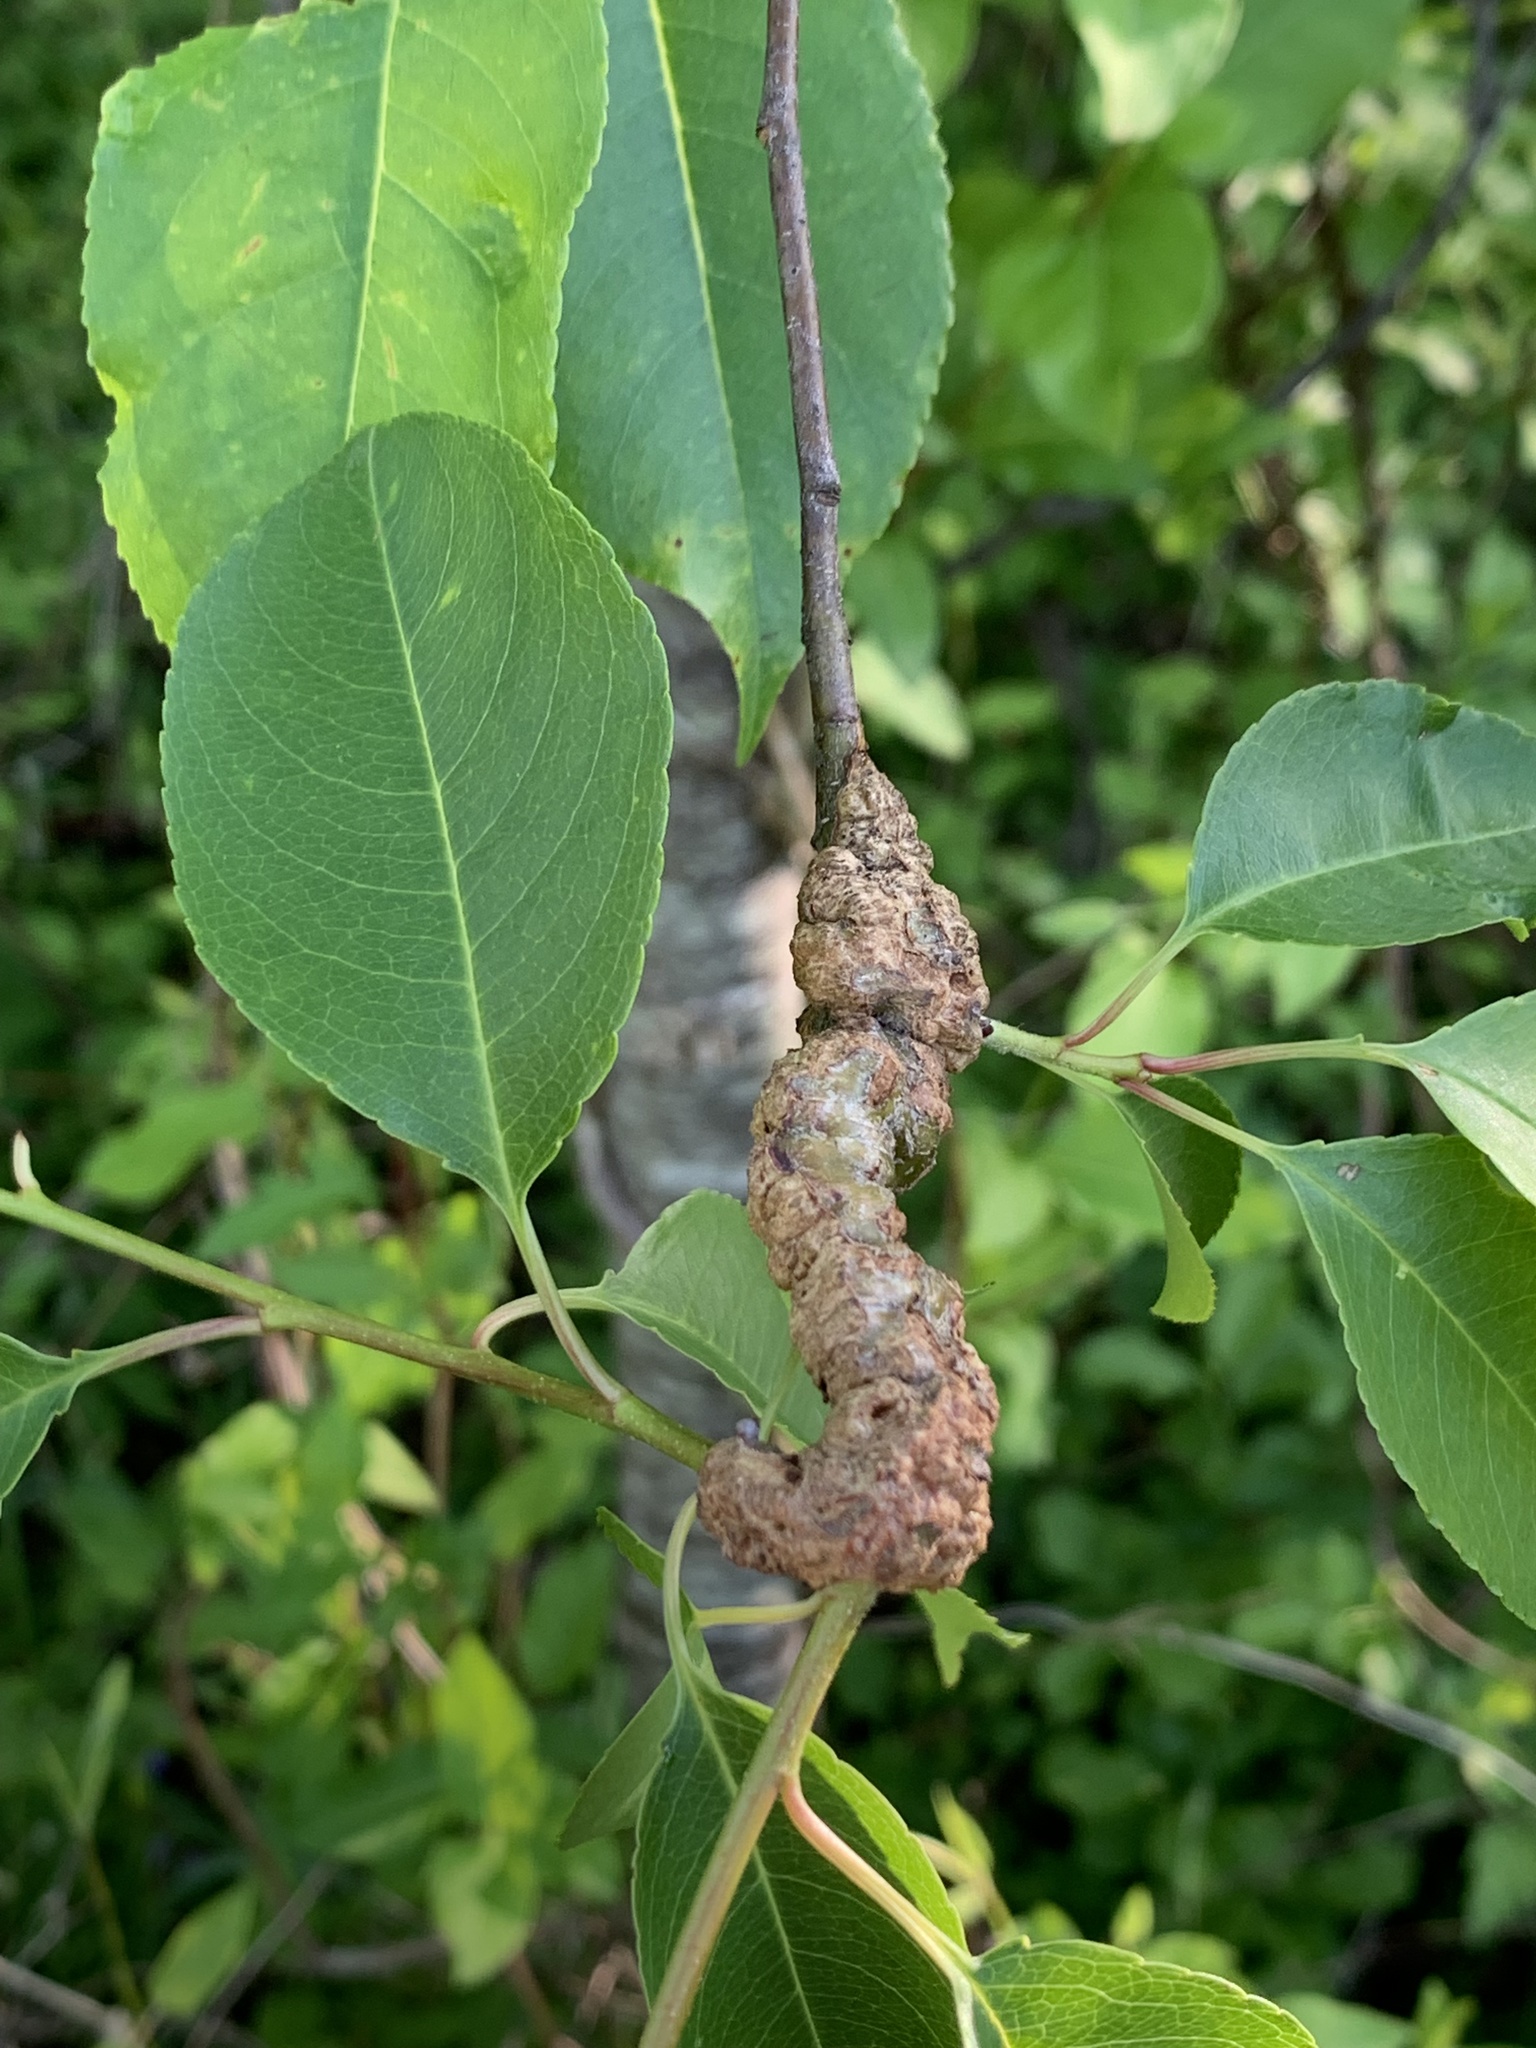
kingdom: Fungi
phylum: Ascomycota
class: Dothideomycetes
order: Venturiales
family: Venturiaceae
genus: Apiosporina
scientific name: Apiosporina morbosa
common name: Black knot
